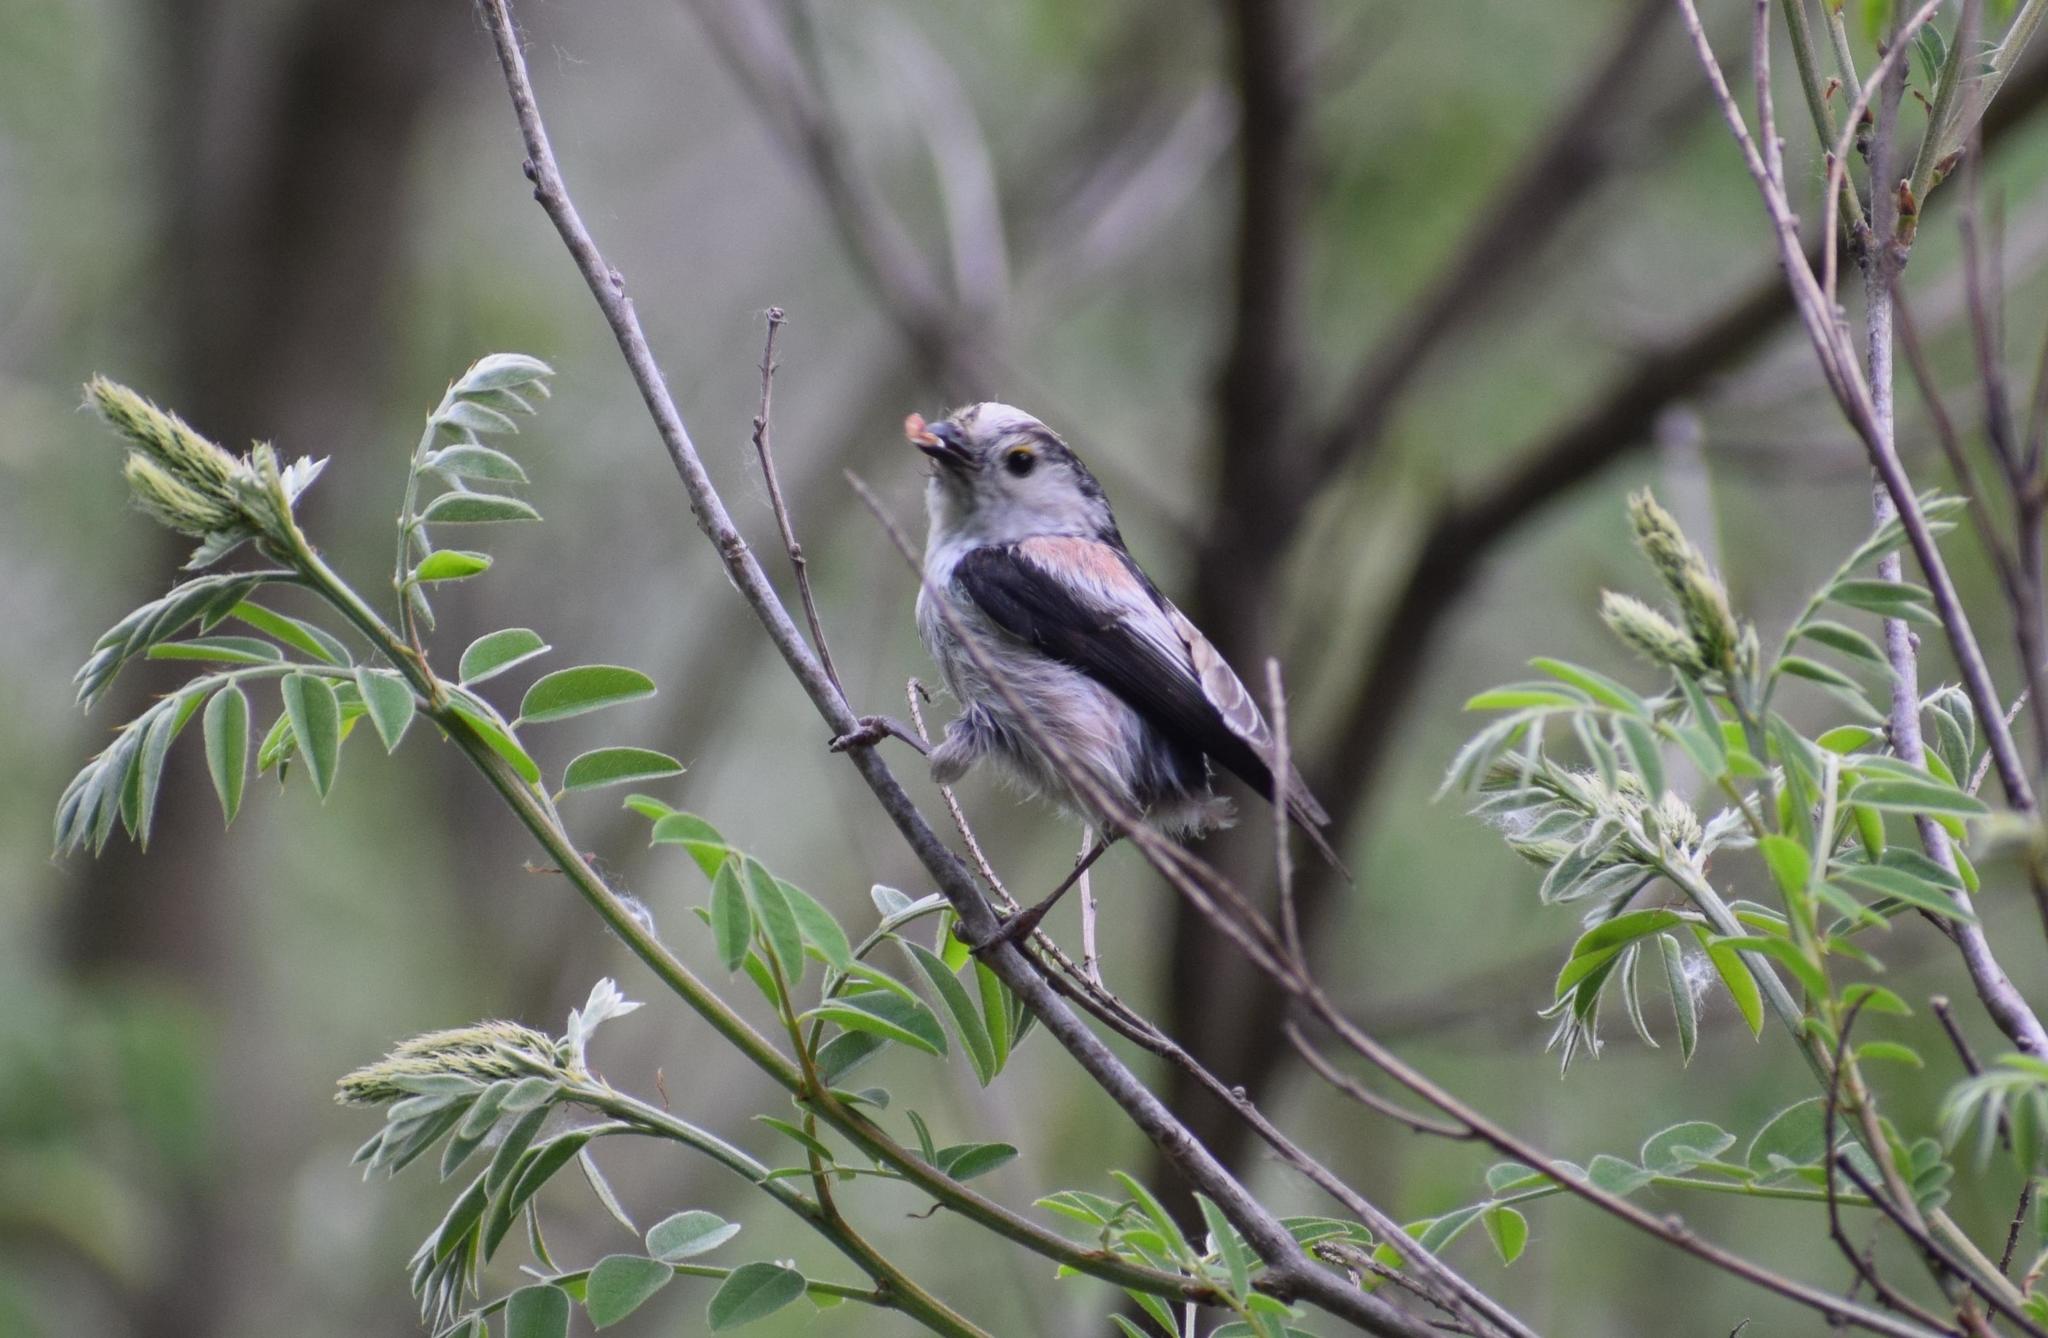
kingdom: Animalia
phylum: Chordata
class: Aves
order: Passeriformes
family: Aegithalidae
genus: Aegithalos
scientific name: Aegithalos caudatus
